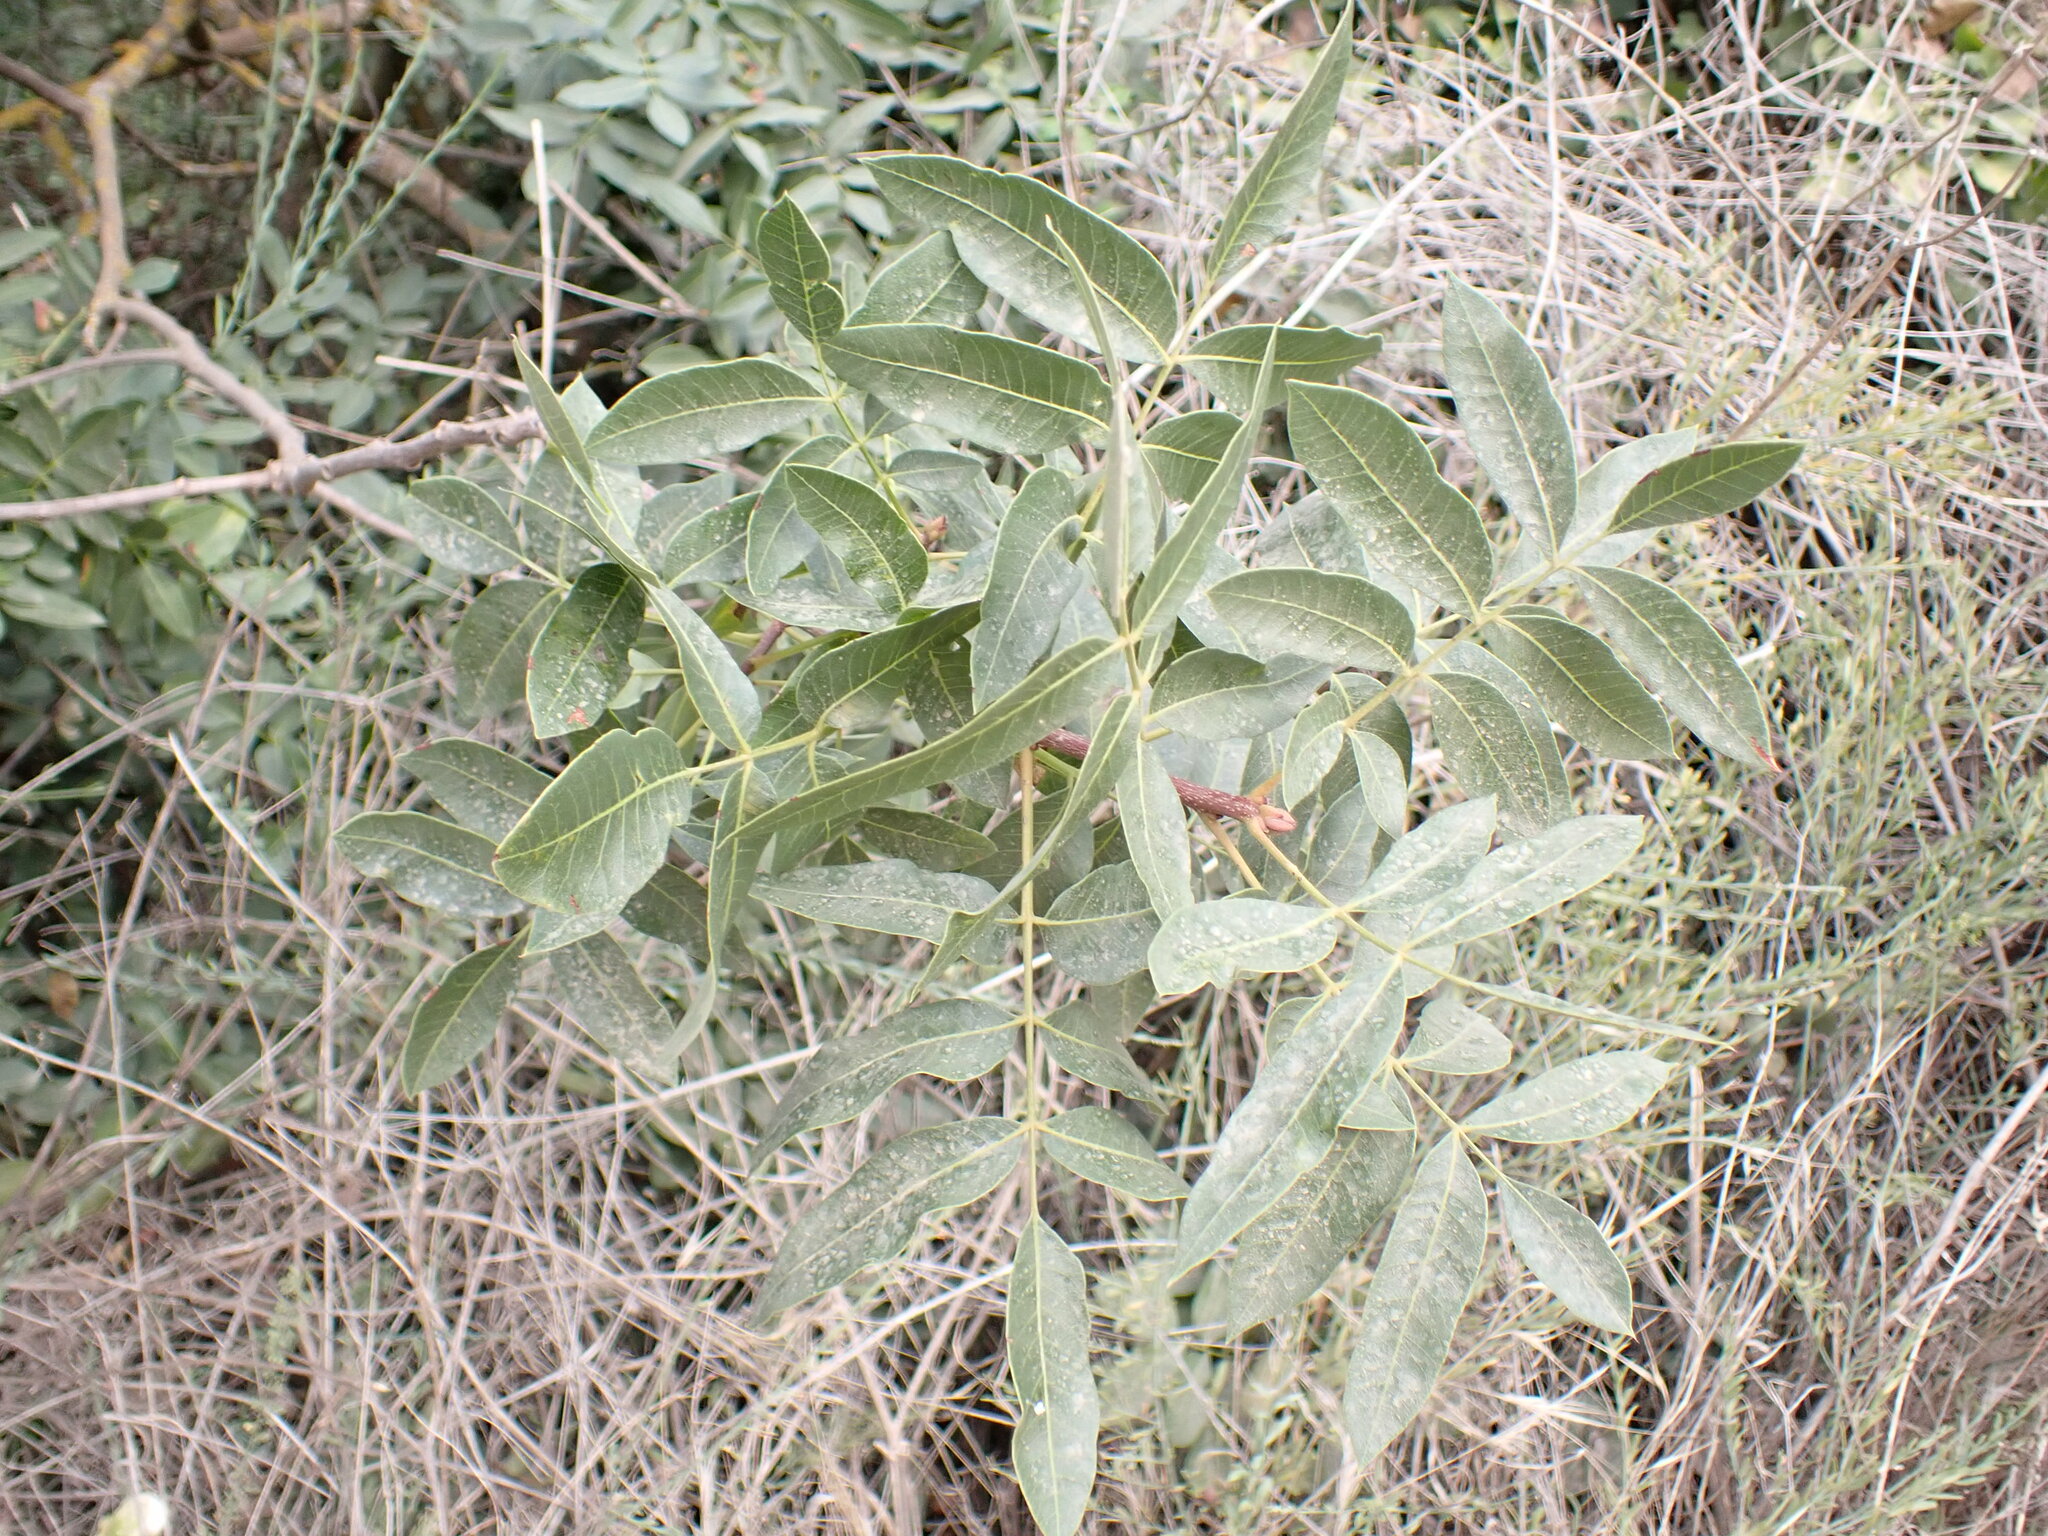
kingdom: Plantae
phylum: Tracheophyta
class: Magnoliopsida
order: Sapindales
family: Anacardiaceae
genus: Pistacia
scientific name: Pistacia terebinthus
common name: Terebinth
